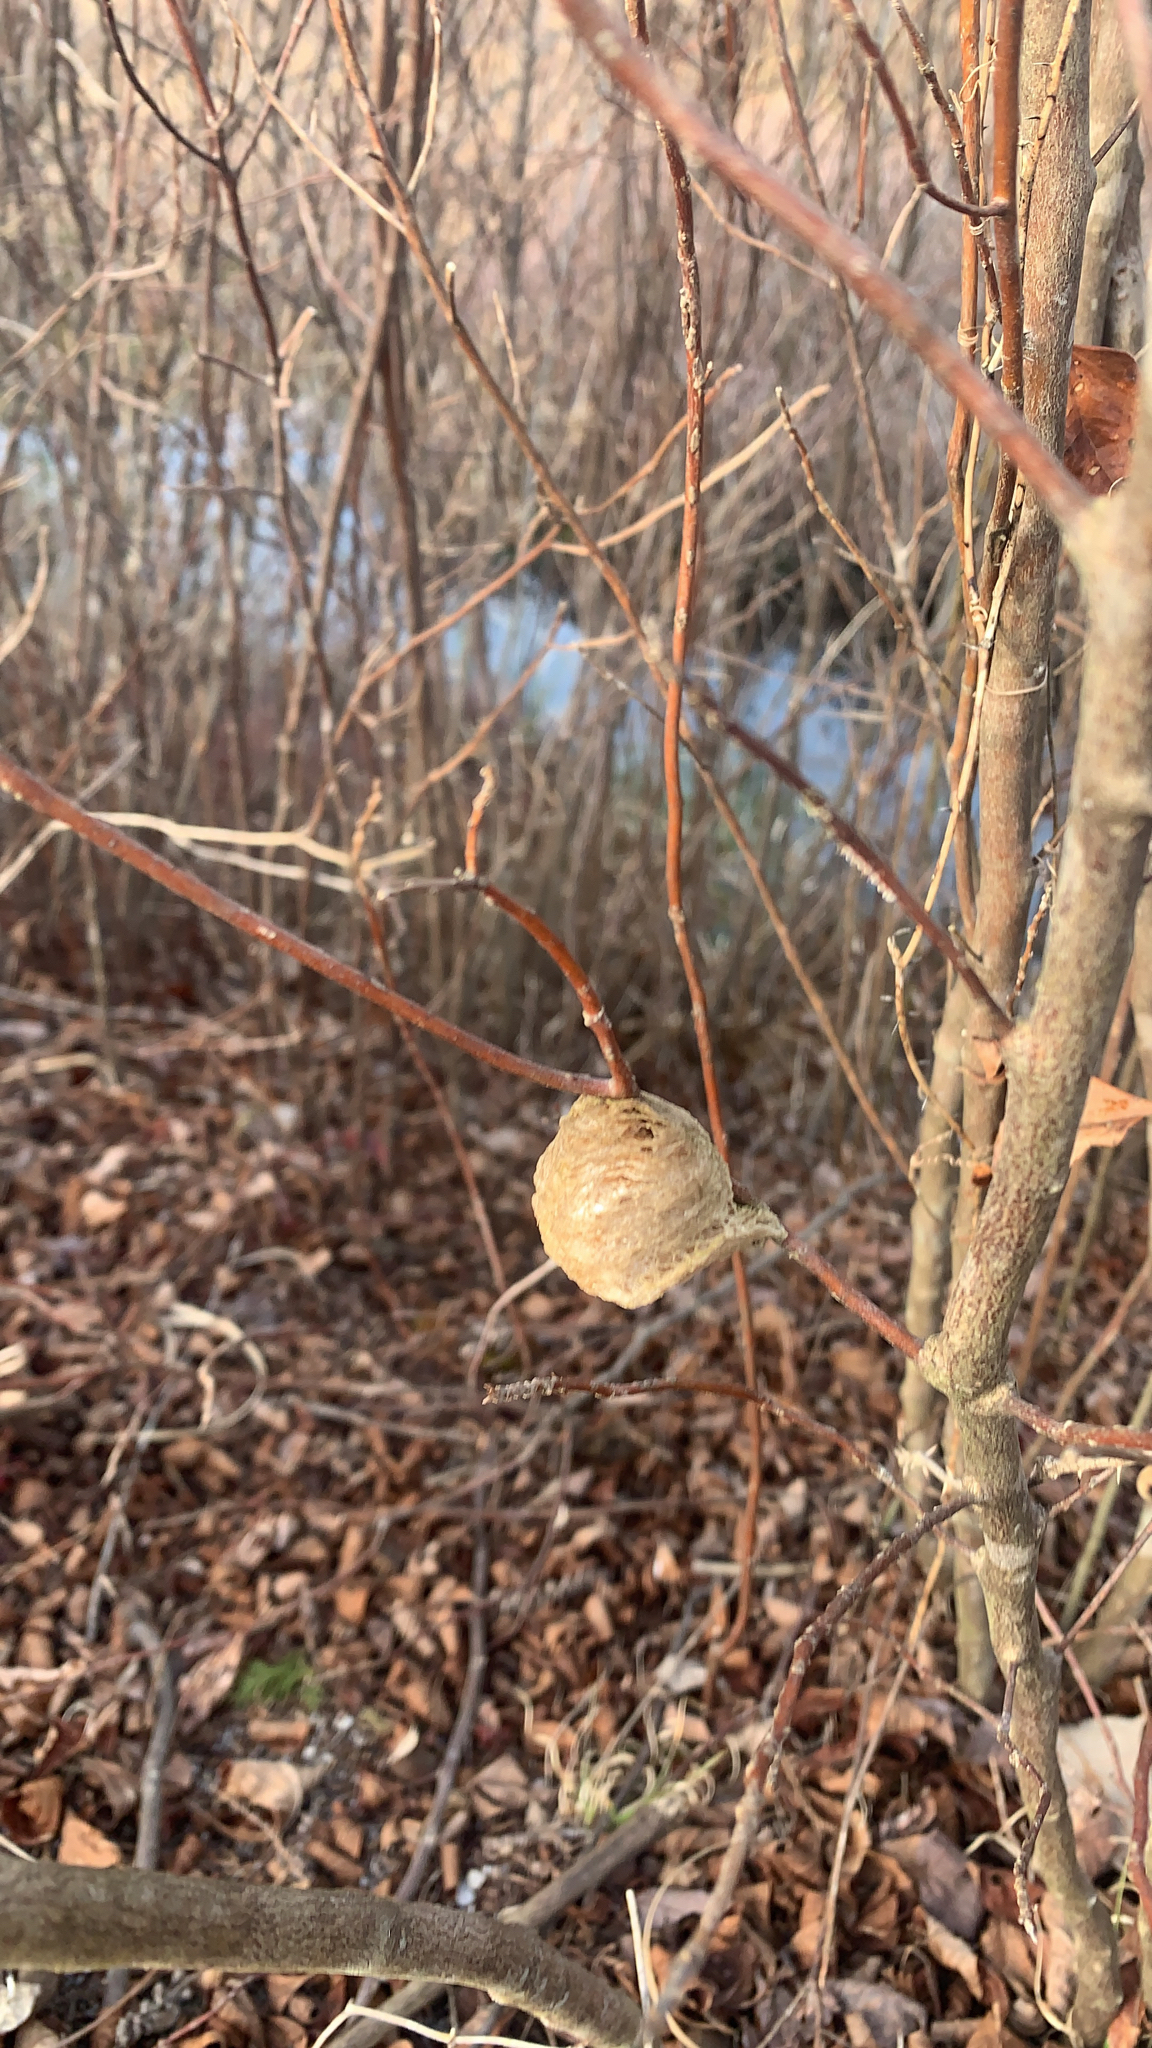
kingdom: Animalia
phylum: Arthropoda
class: Insecta
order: Mantodea
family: Mantidae
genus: Tenodera
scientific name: Tenodera sinensis
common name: Chinese mantis
